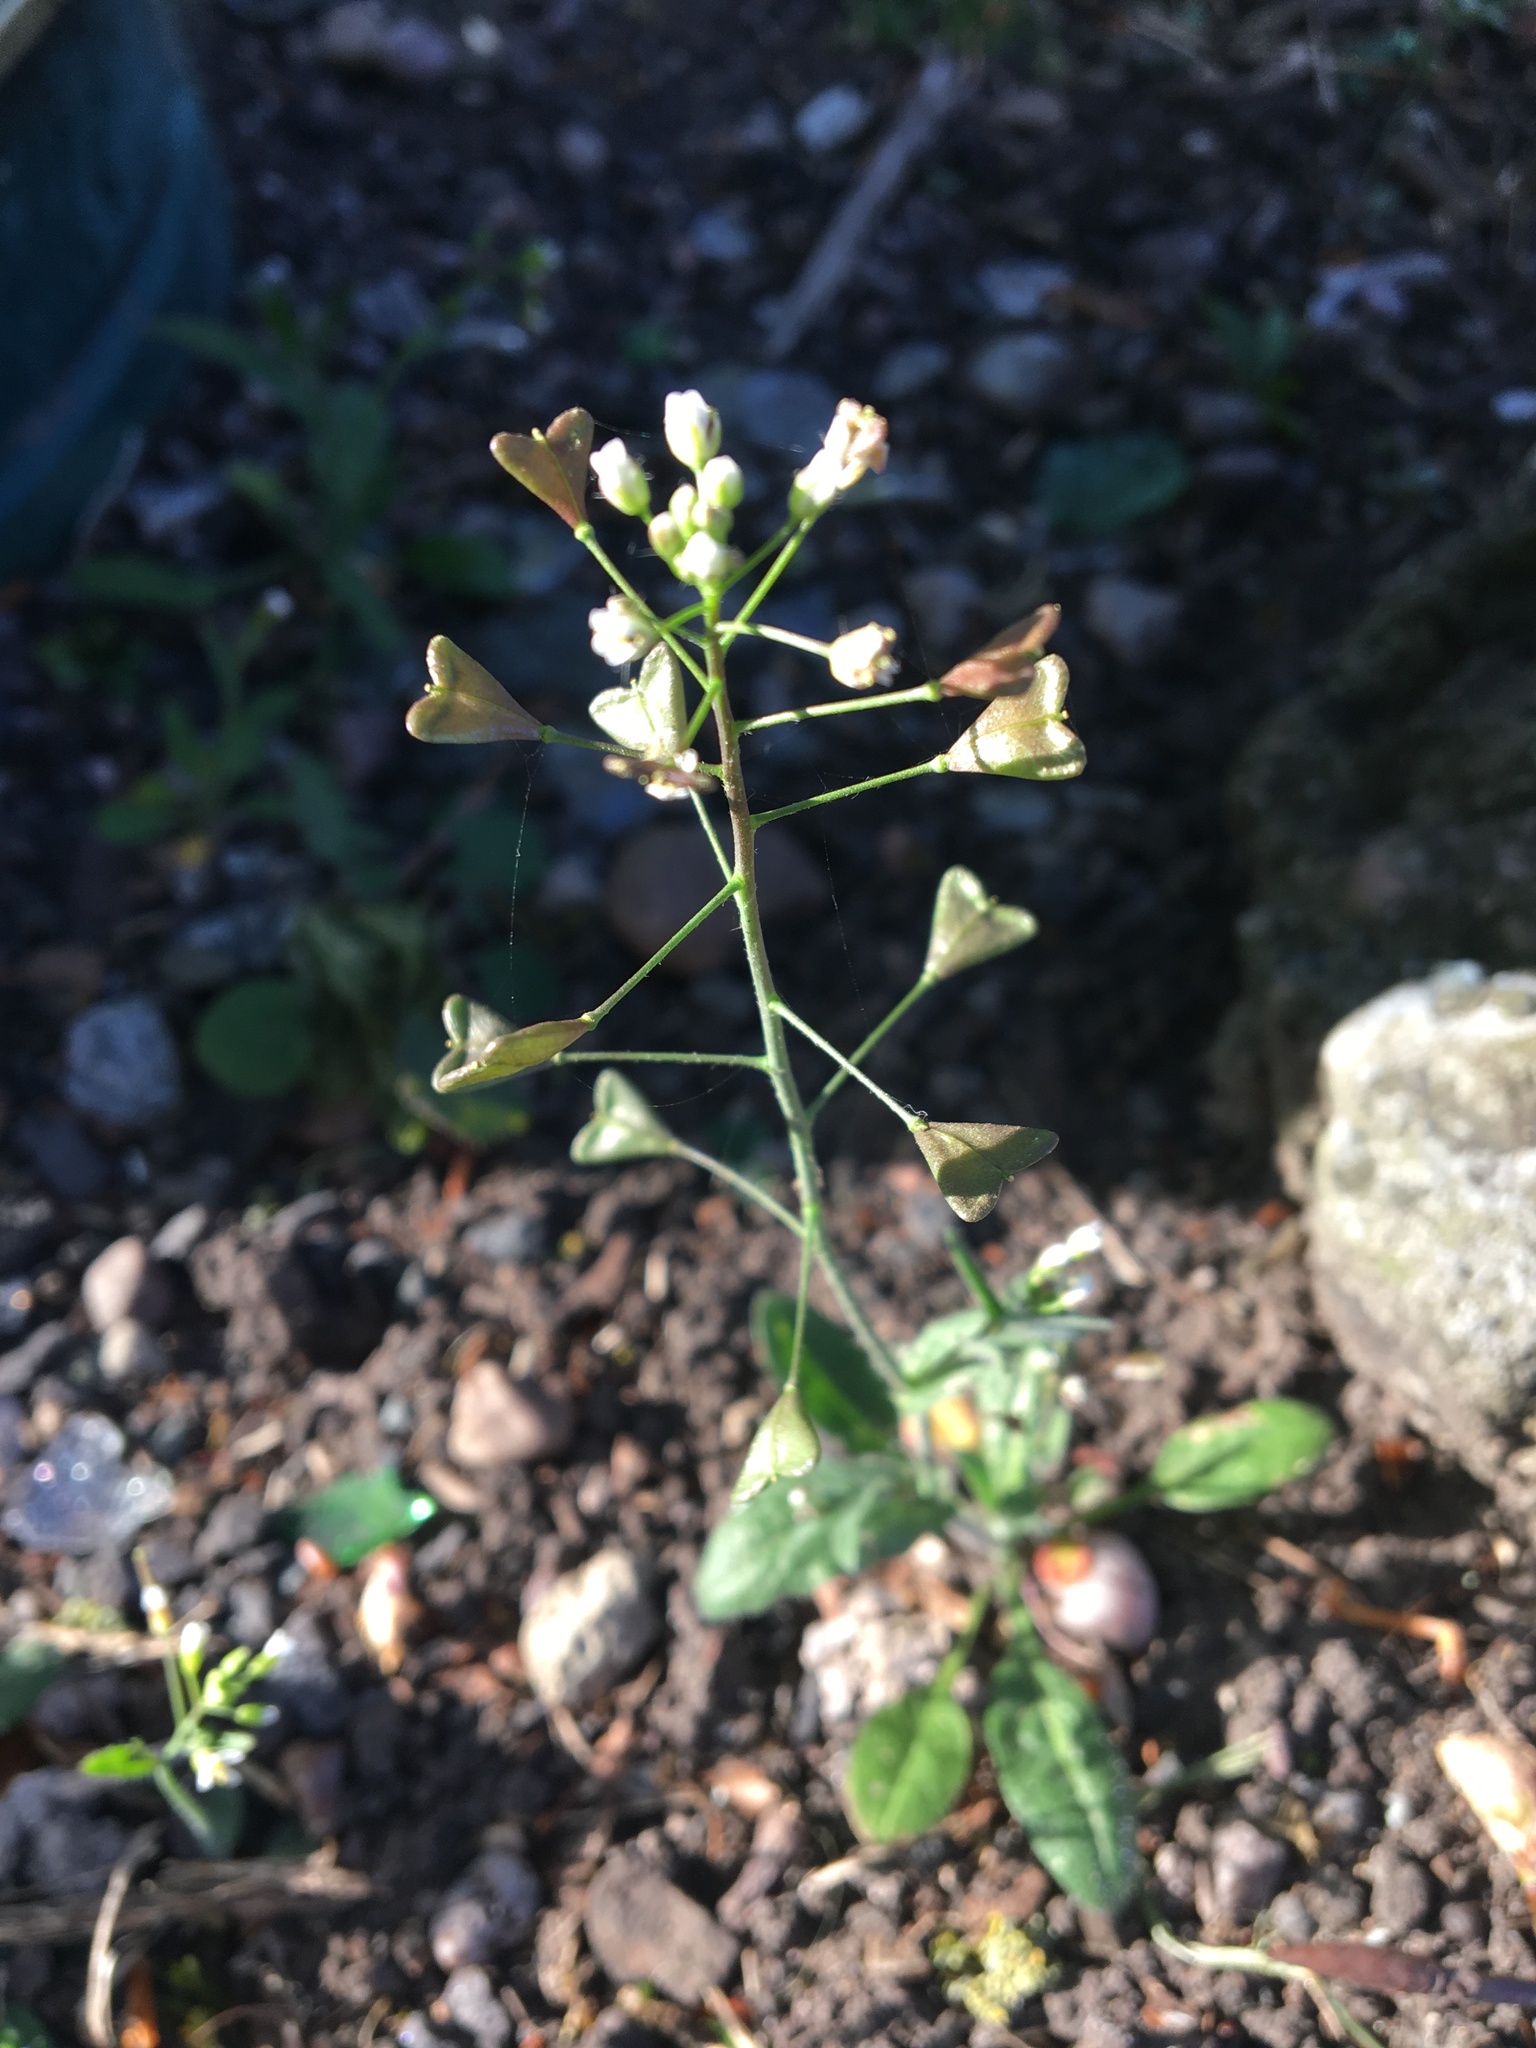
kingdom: Plantae
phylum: Tracheophyta
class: Magnoliopsida
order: Brassicales
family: Brassicaceae
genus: Capsella
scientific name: Capsella bursa-pastoris
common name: Shepherd's purse
